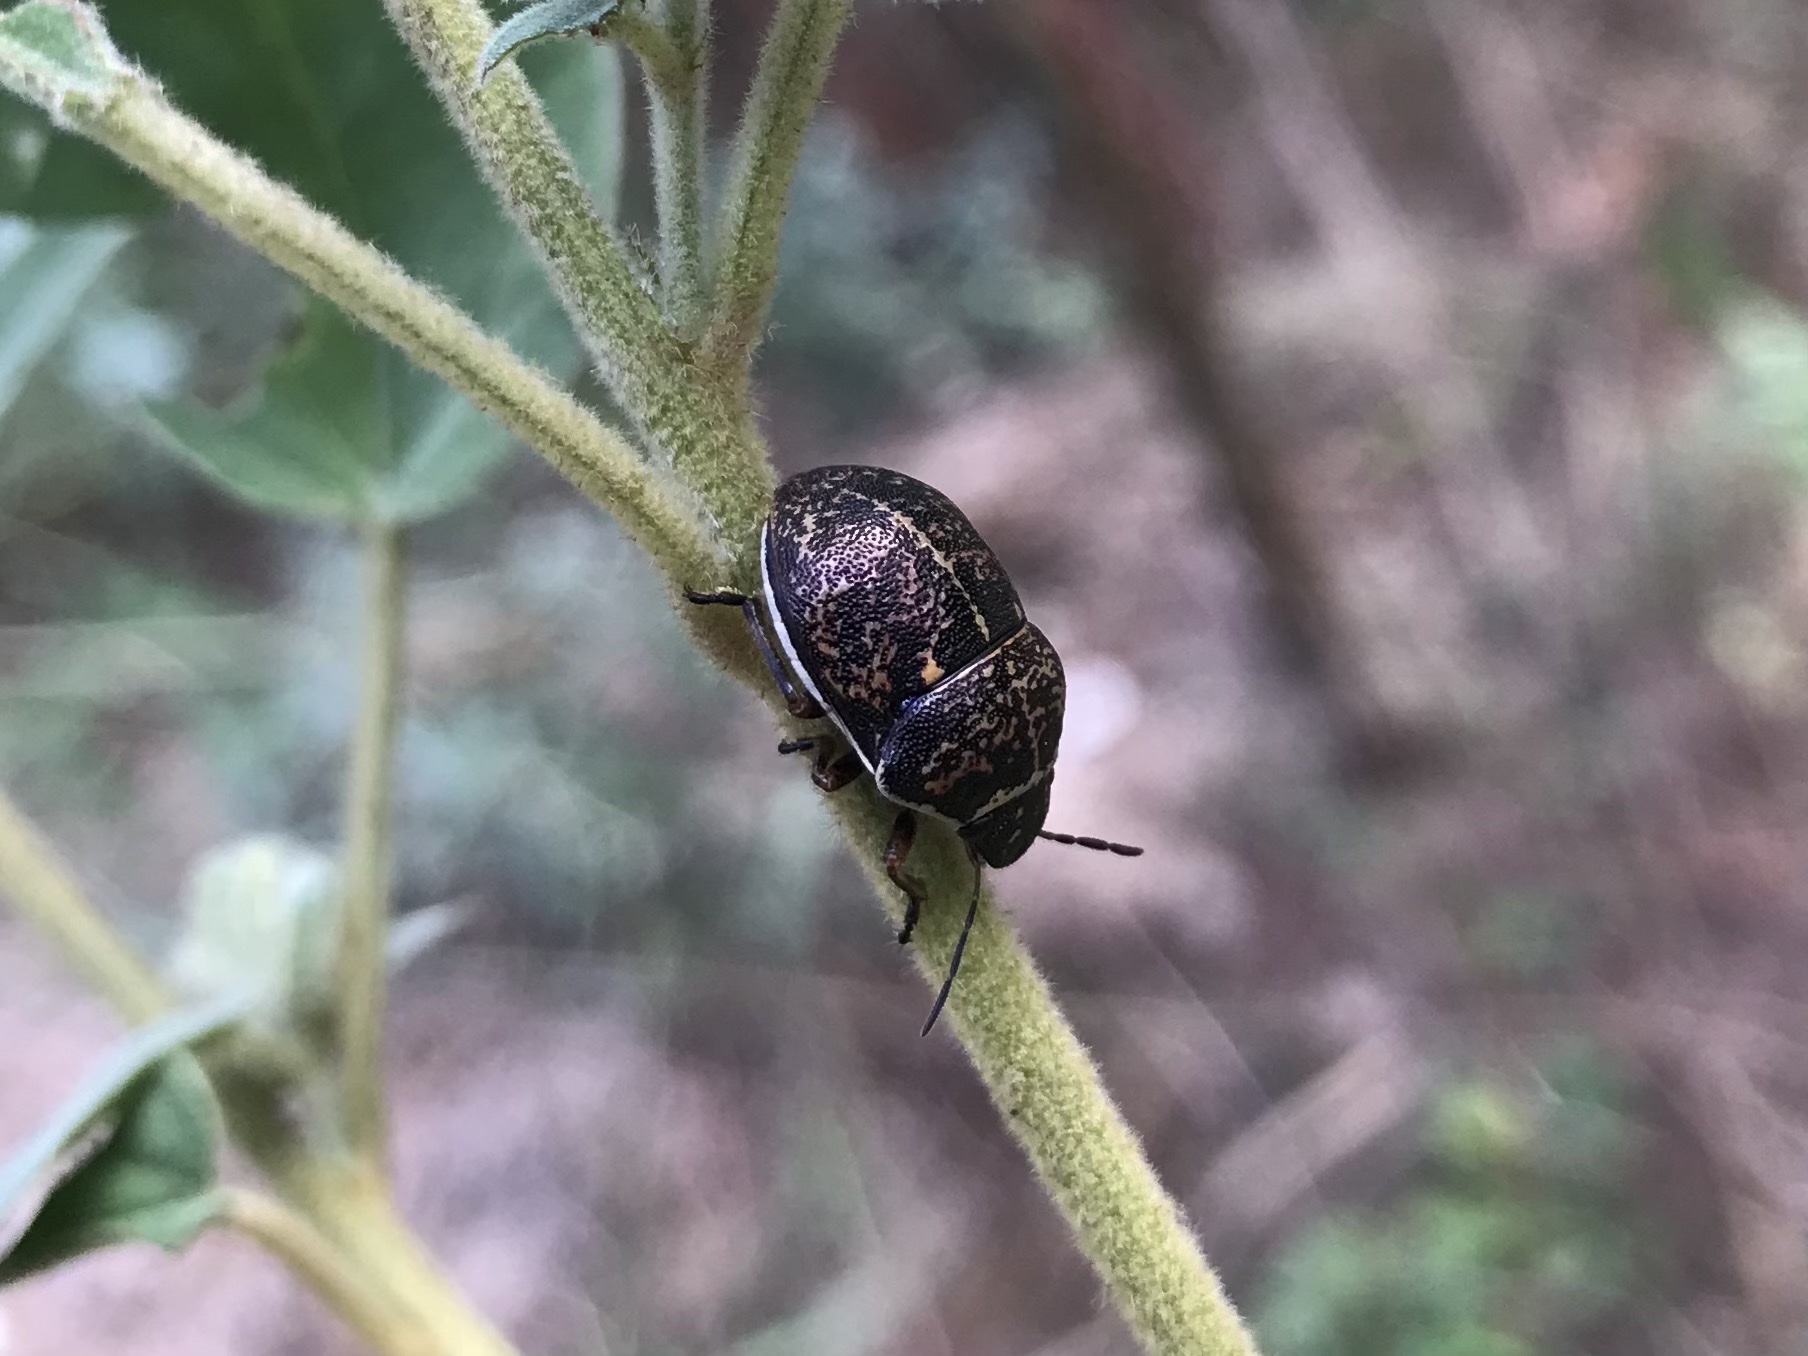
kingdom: Animalia
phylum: Arthropoda
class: Insecta
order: Hemiptera
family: Scutelleridae
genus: Orsilochides
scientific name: Orsilochides guttata
